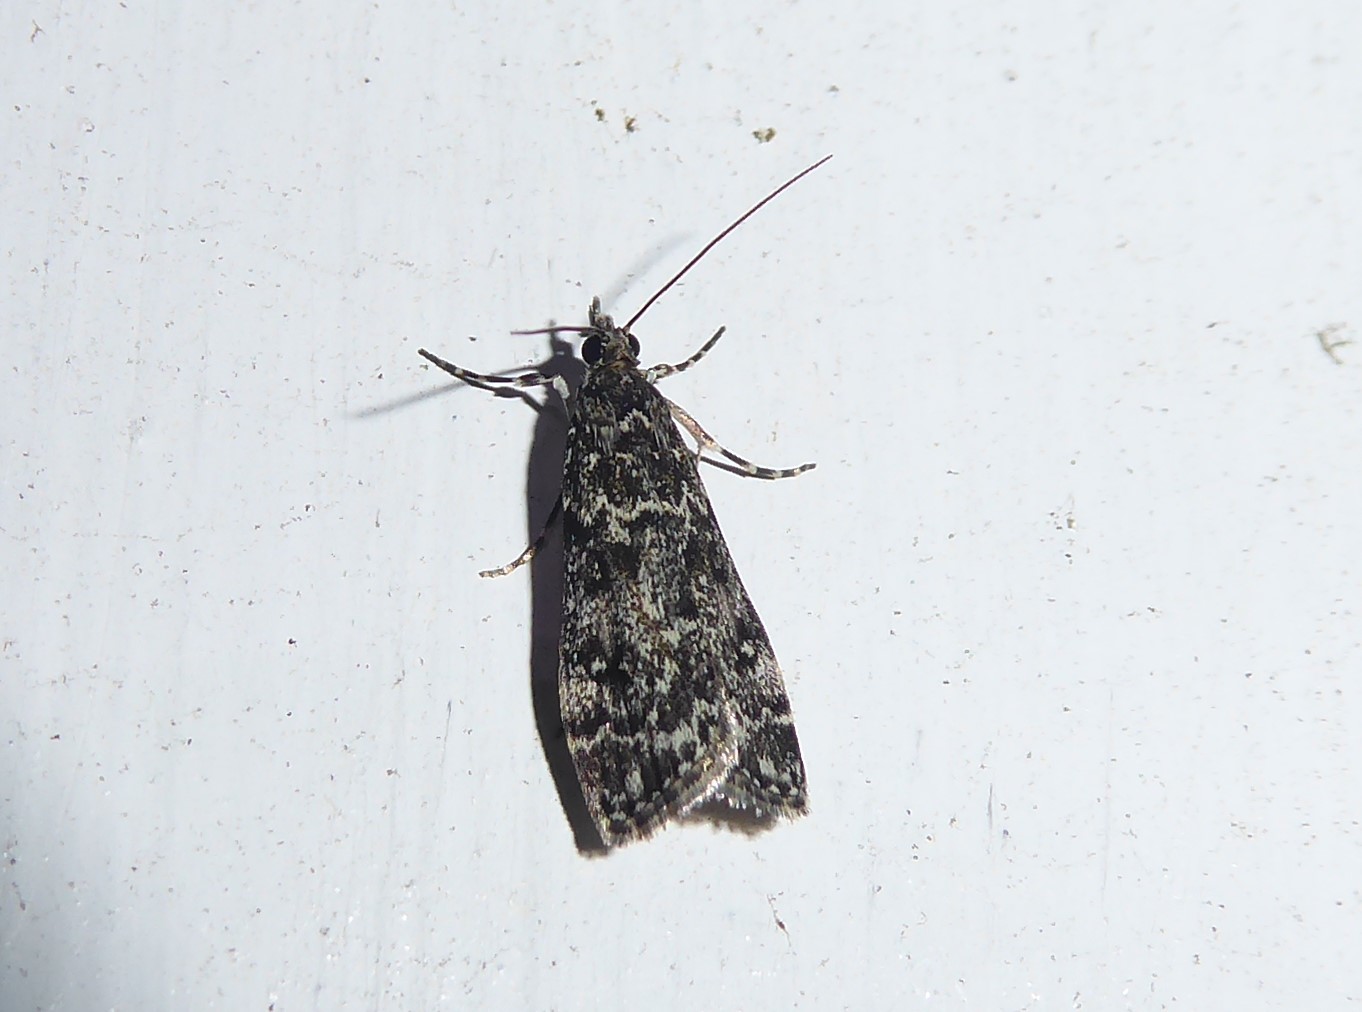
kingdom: Animalia
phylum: Arthropoda
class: Insecta
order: Lepidoptera
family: Crambidae
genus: Eudonia
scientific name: Eudonia philerga
